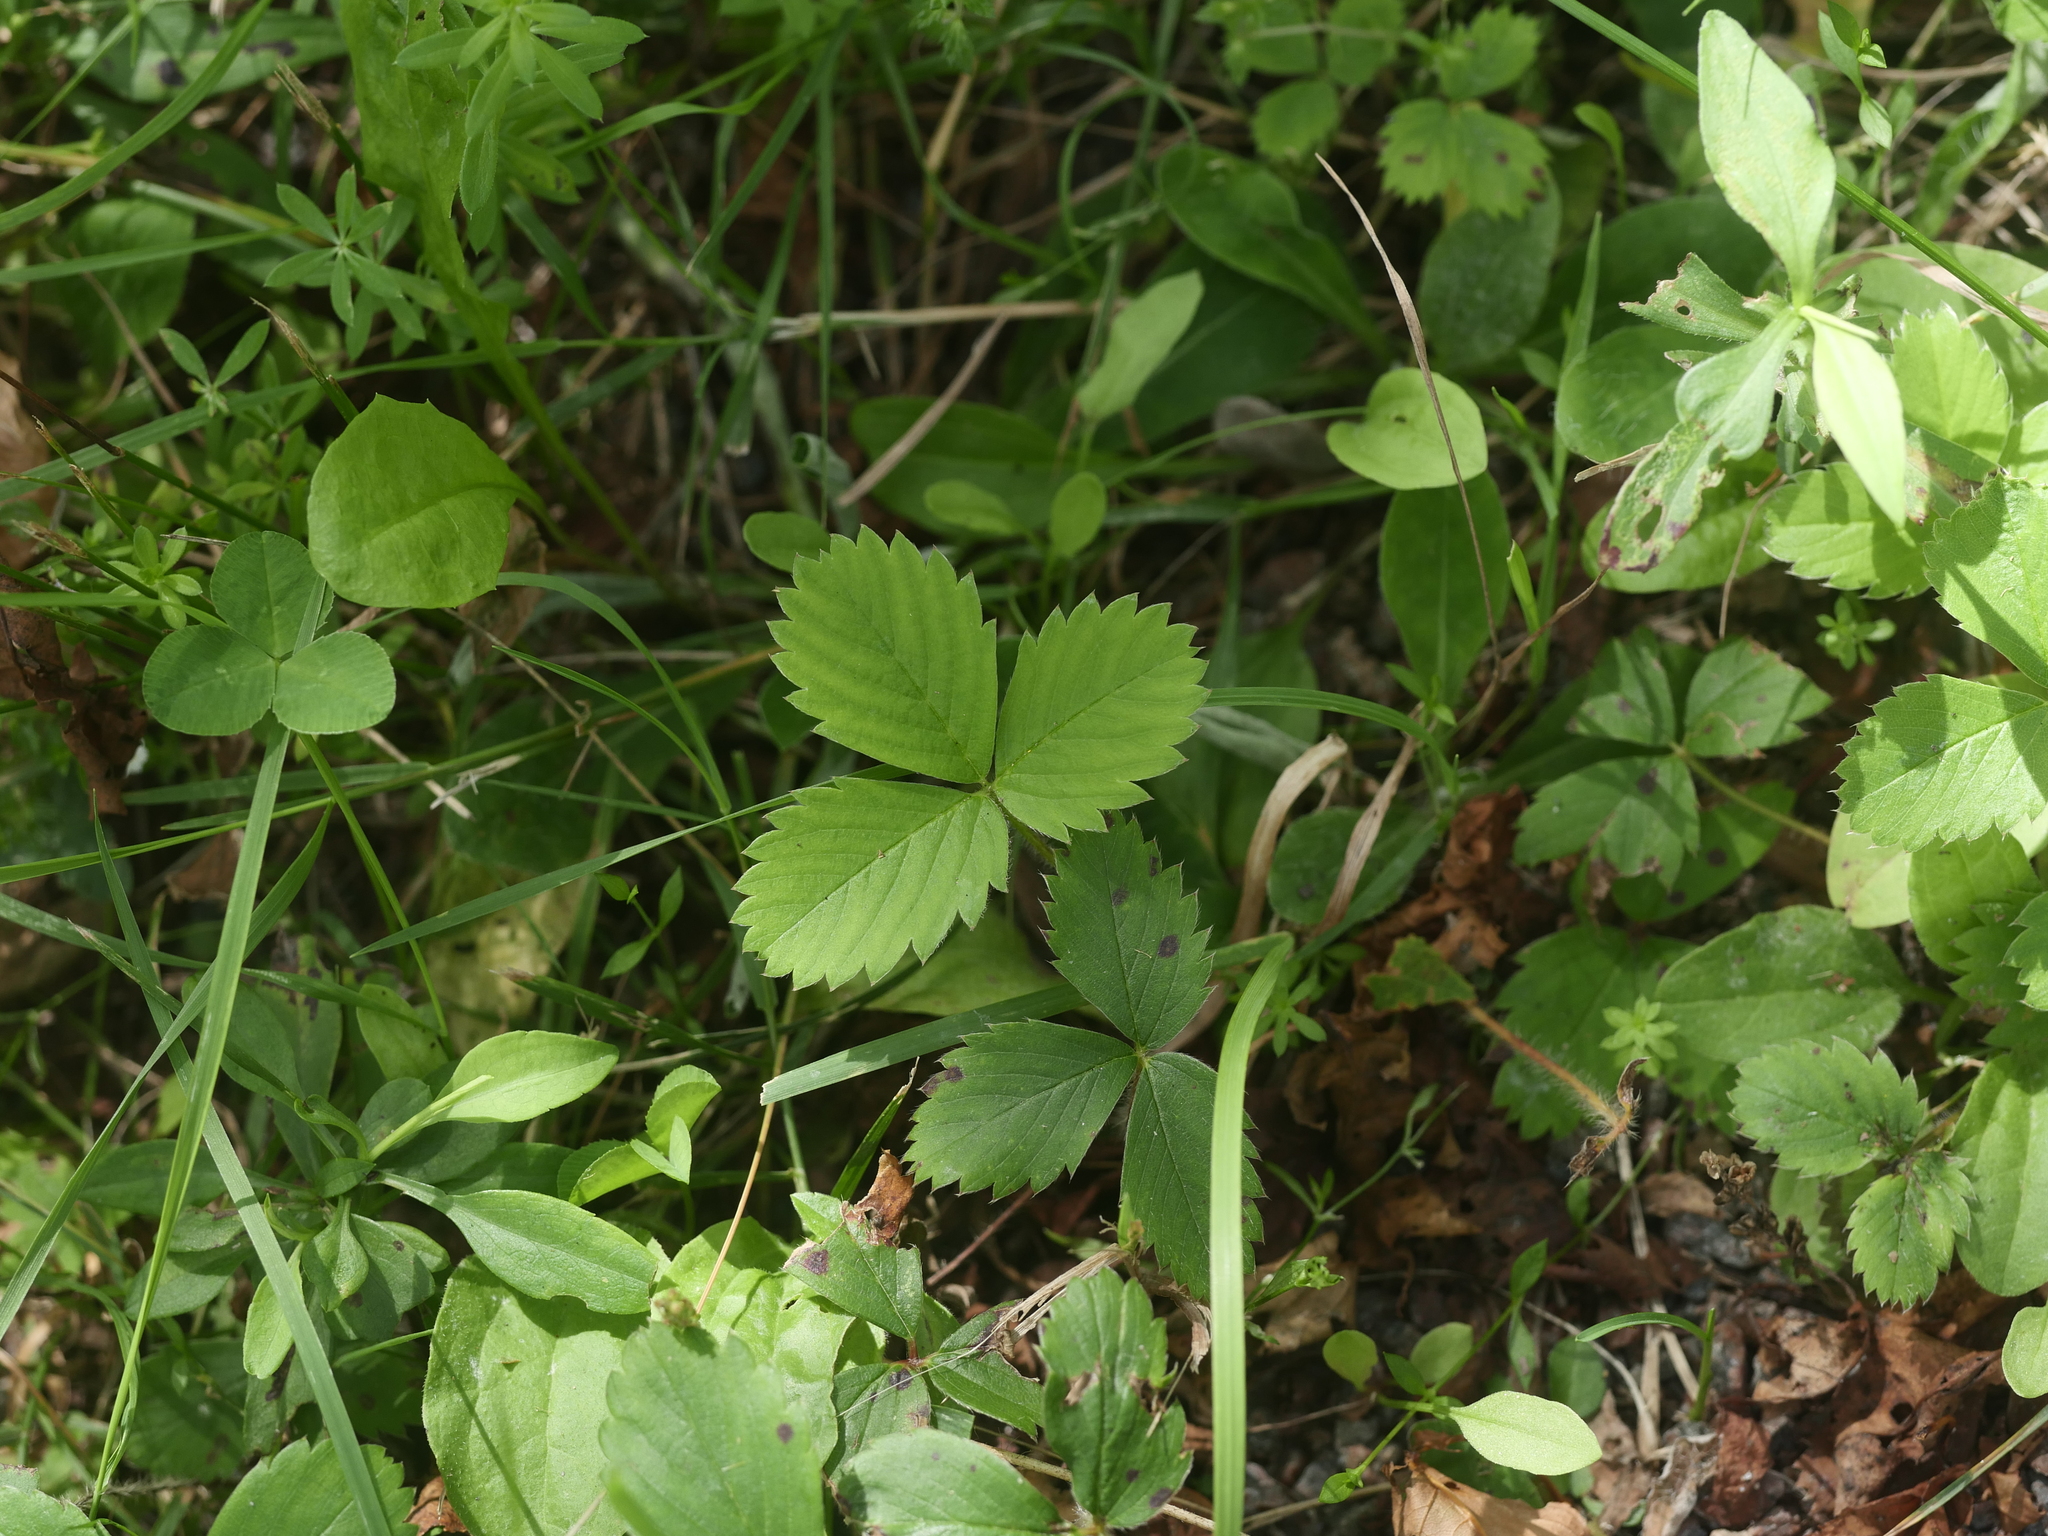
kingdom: Plantae
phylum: Tracheophyta
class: Magnoliopsida
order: Rosales
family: Rosaceae
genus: Fragaria
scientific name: Fragaria virginiana
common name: Thickleaved wild strawberry
